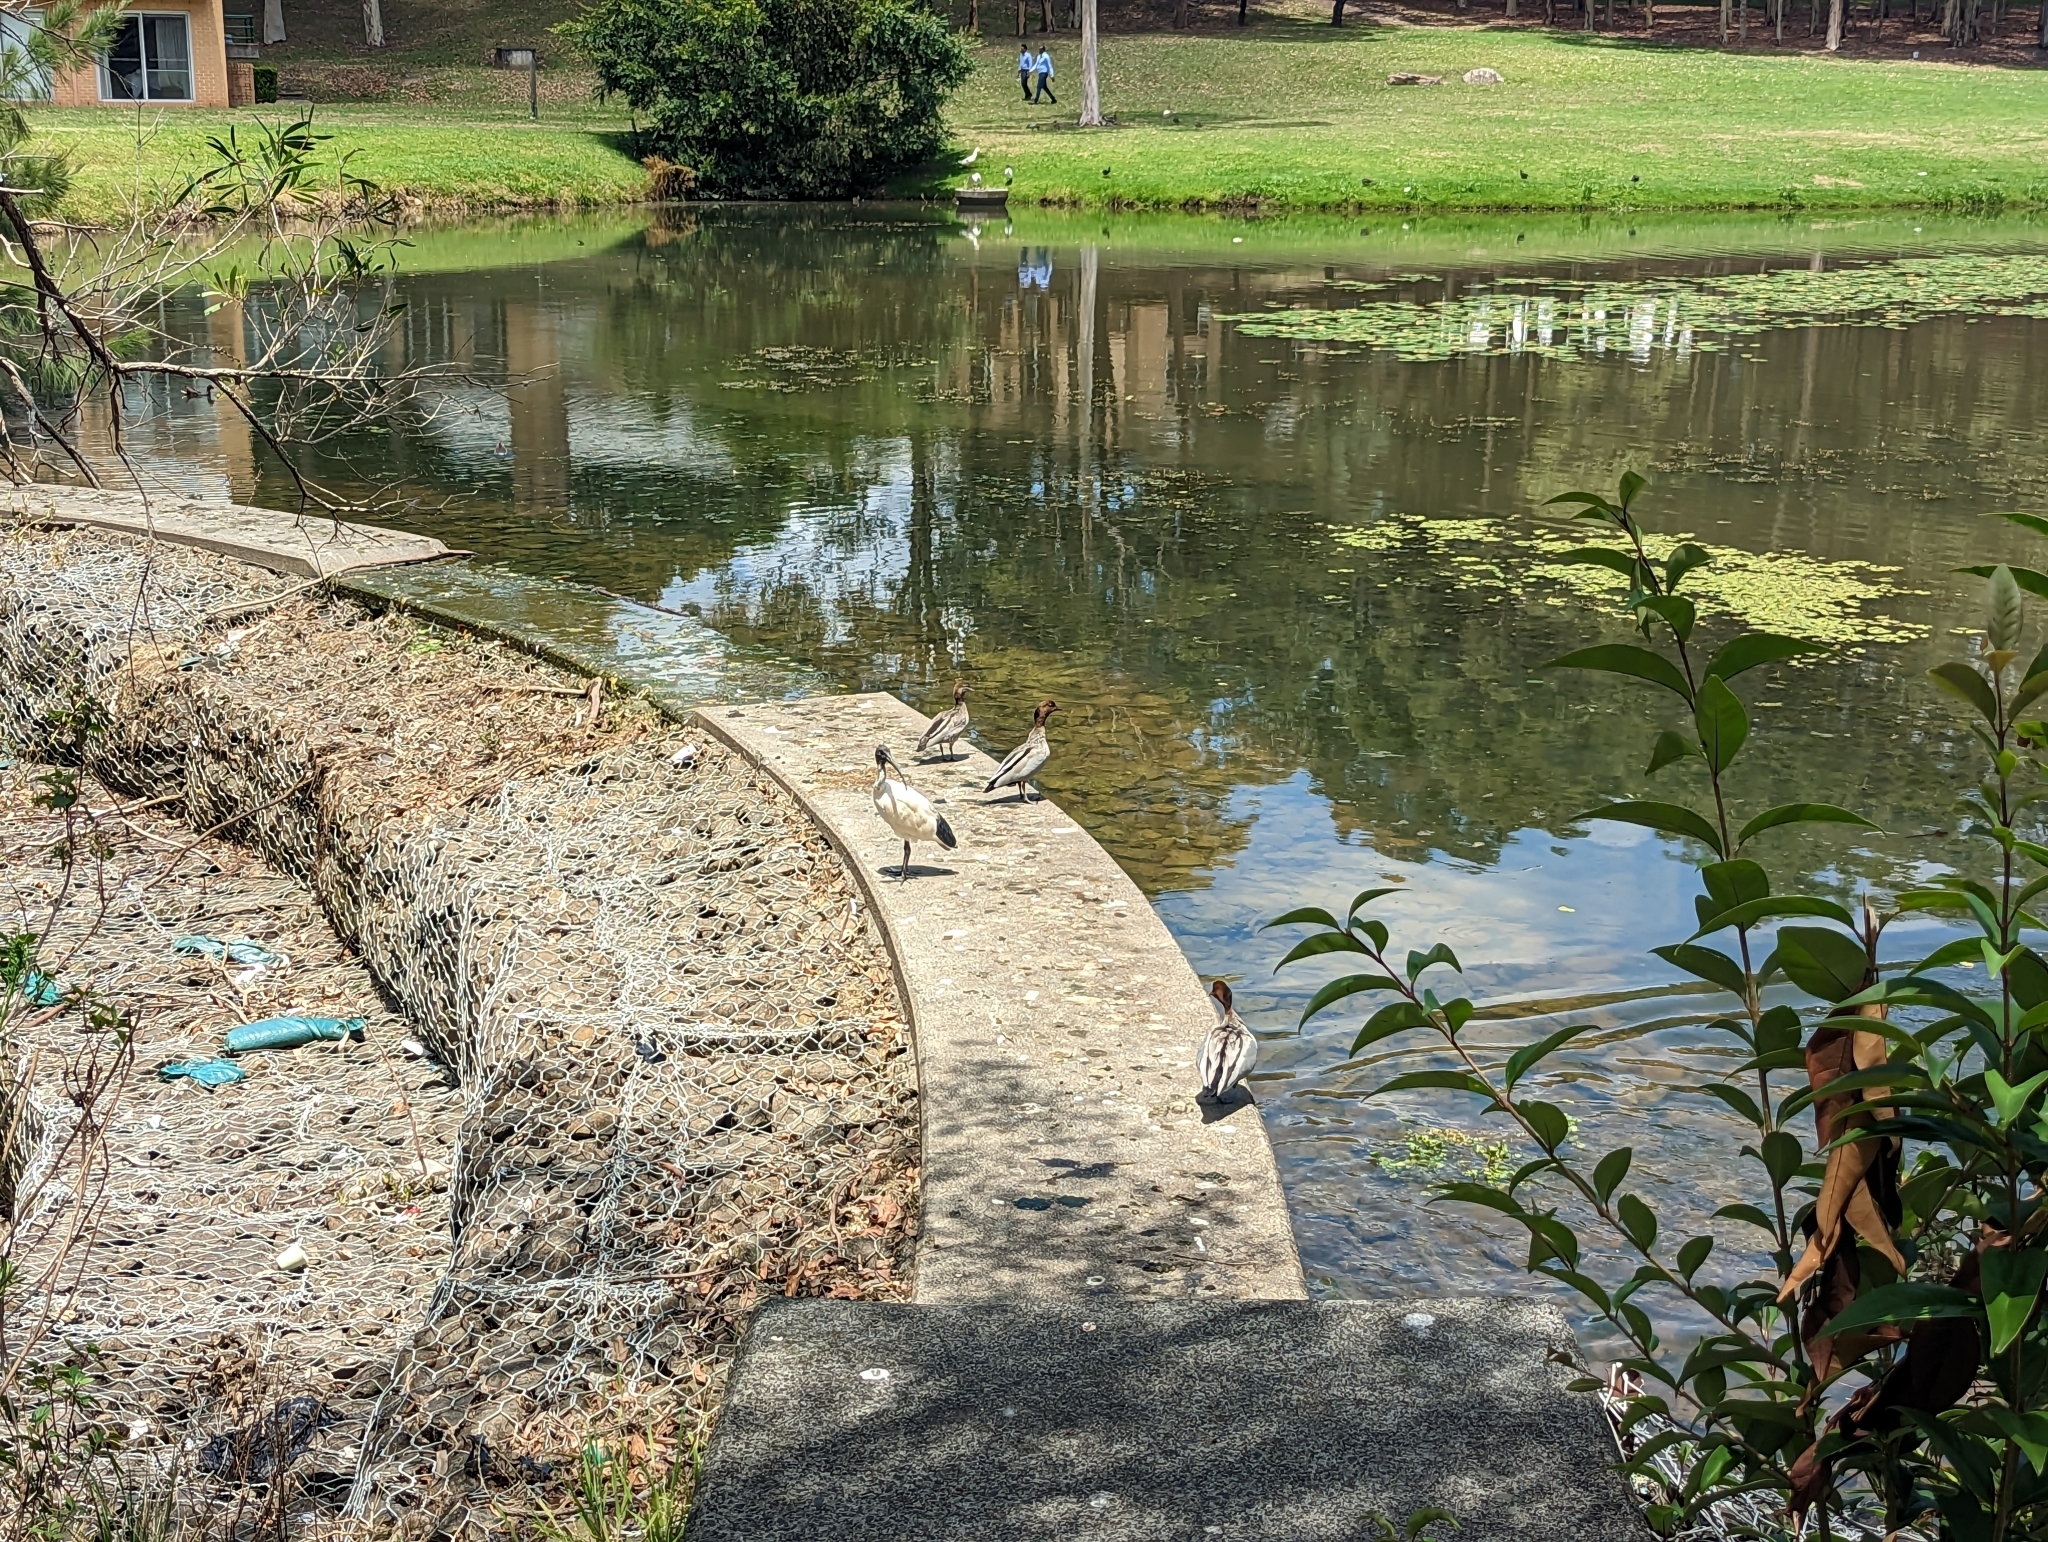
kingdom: Animalia
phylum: Chordata
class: Aves
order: Pelecaniformes
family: Threskiornithidae
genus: Threskiornis
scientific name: Threskiornis molucca
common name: Australian white ibis
